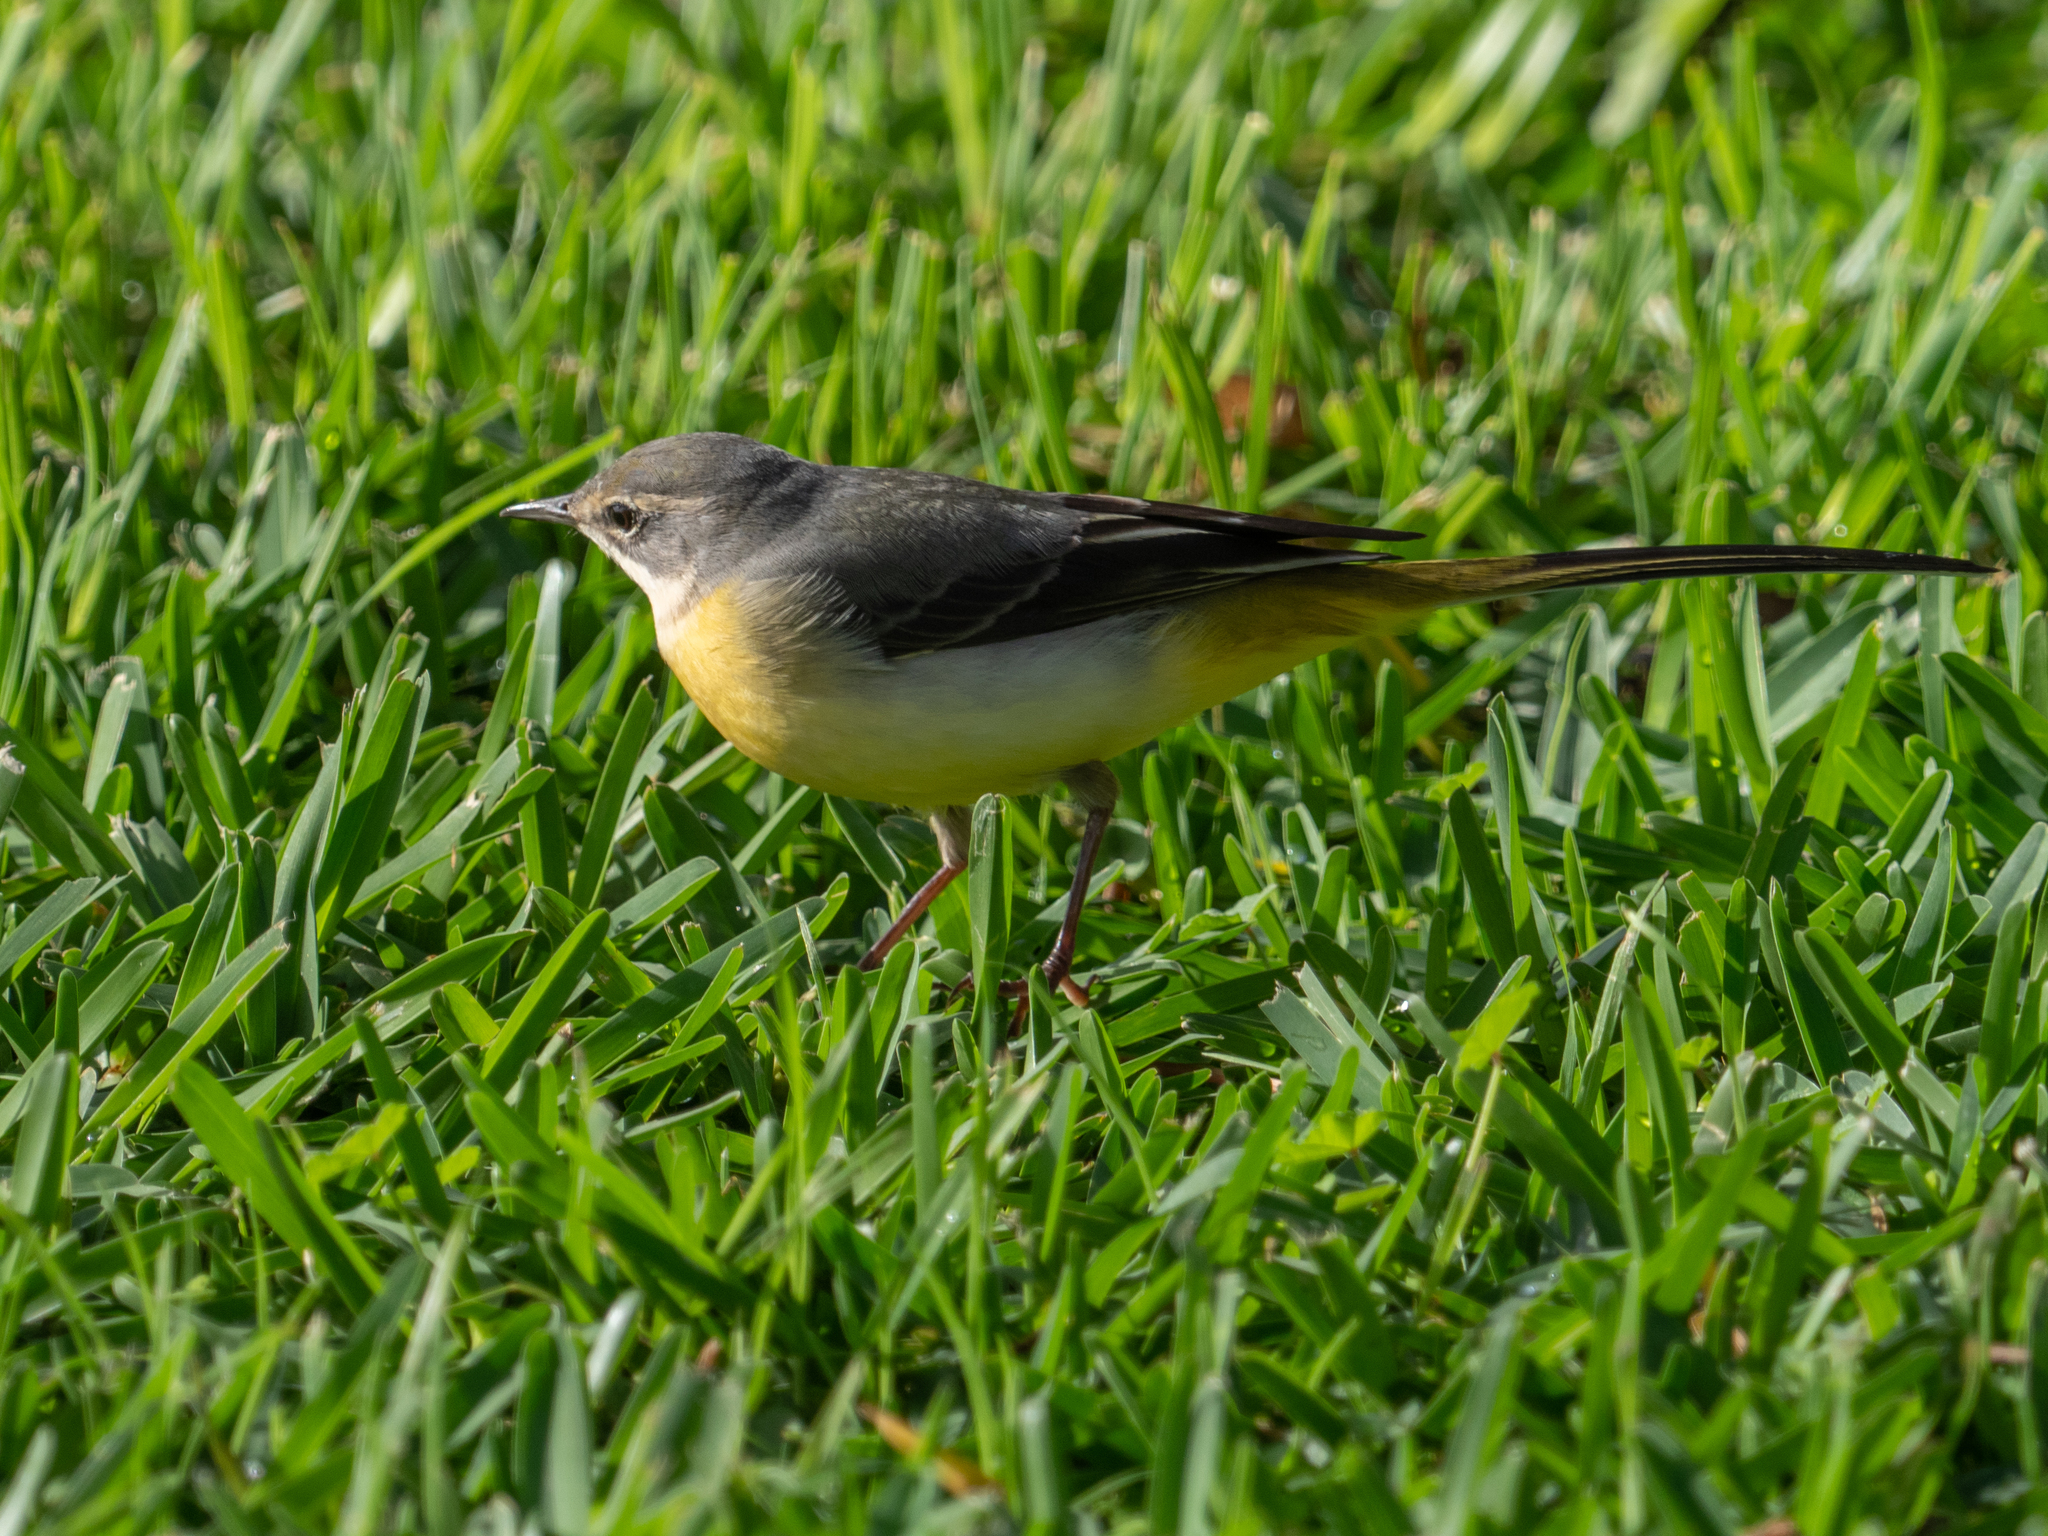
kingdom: Animalia
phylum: Chordata
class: Aves
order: Passeriformes
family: Motacillidae
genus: Motacilla
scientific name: Motacilla cinerea
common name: Grey wagtail
